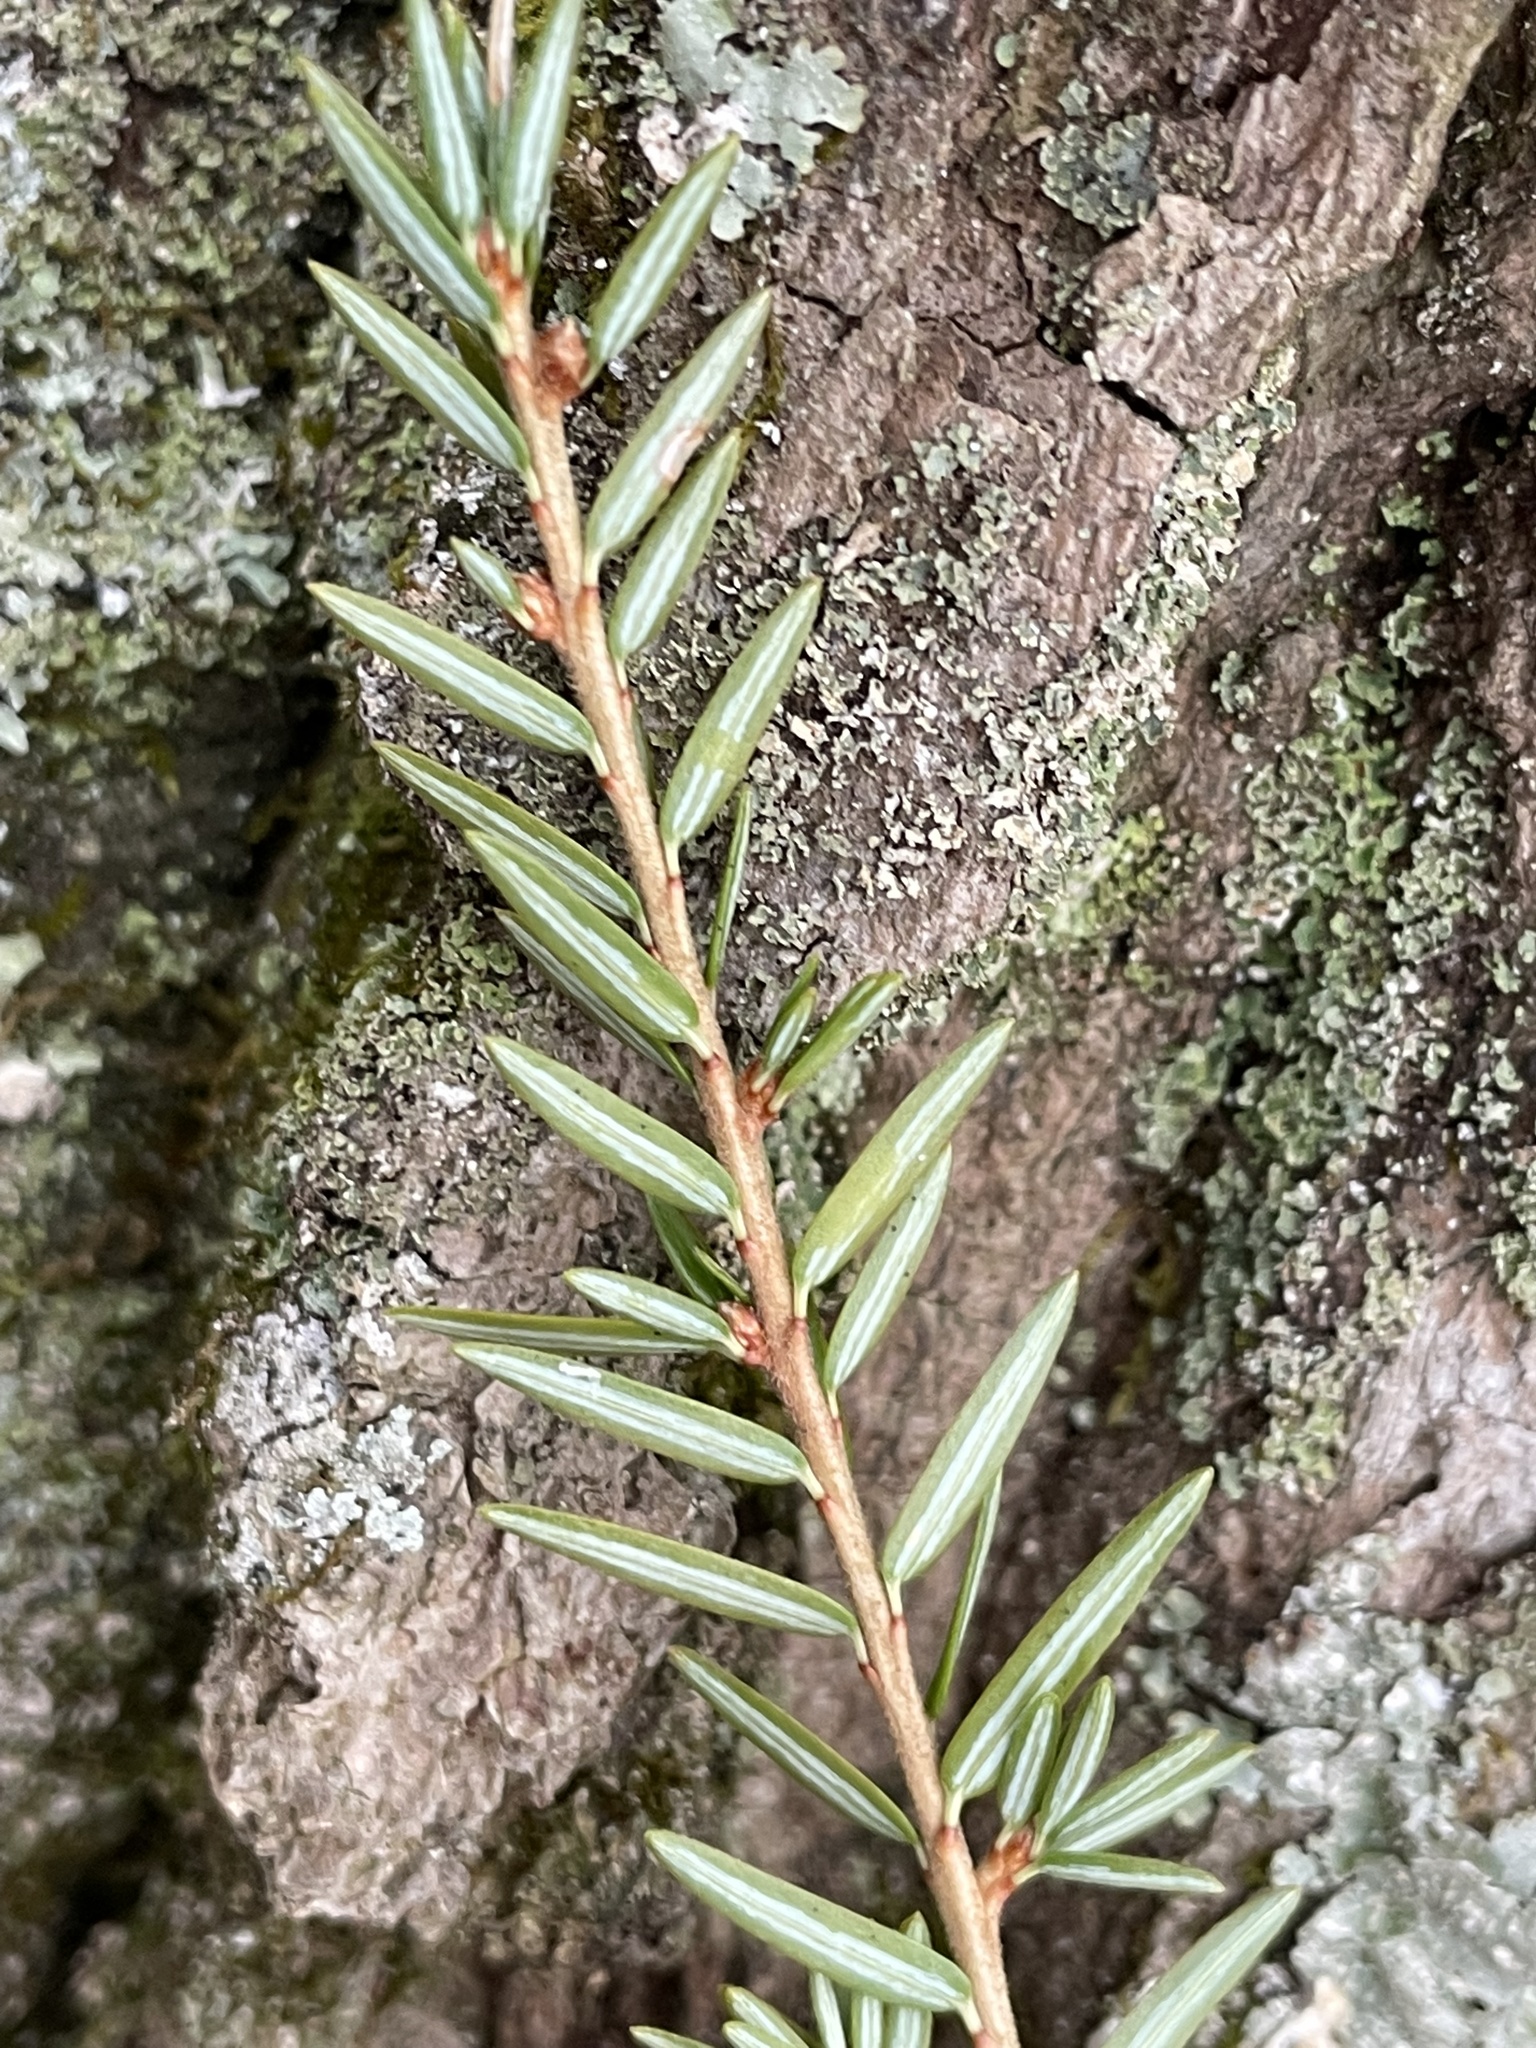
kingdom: Plantae
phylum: Tracheophyta
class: Pinopsida
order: Pinales
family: Pinaceae
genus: Tsuga
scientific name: Tsuga canadensis
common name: Eastern hemlock
